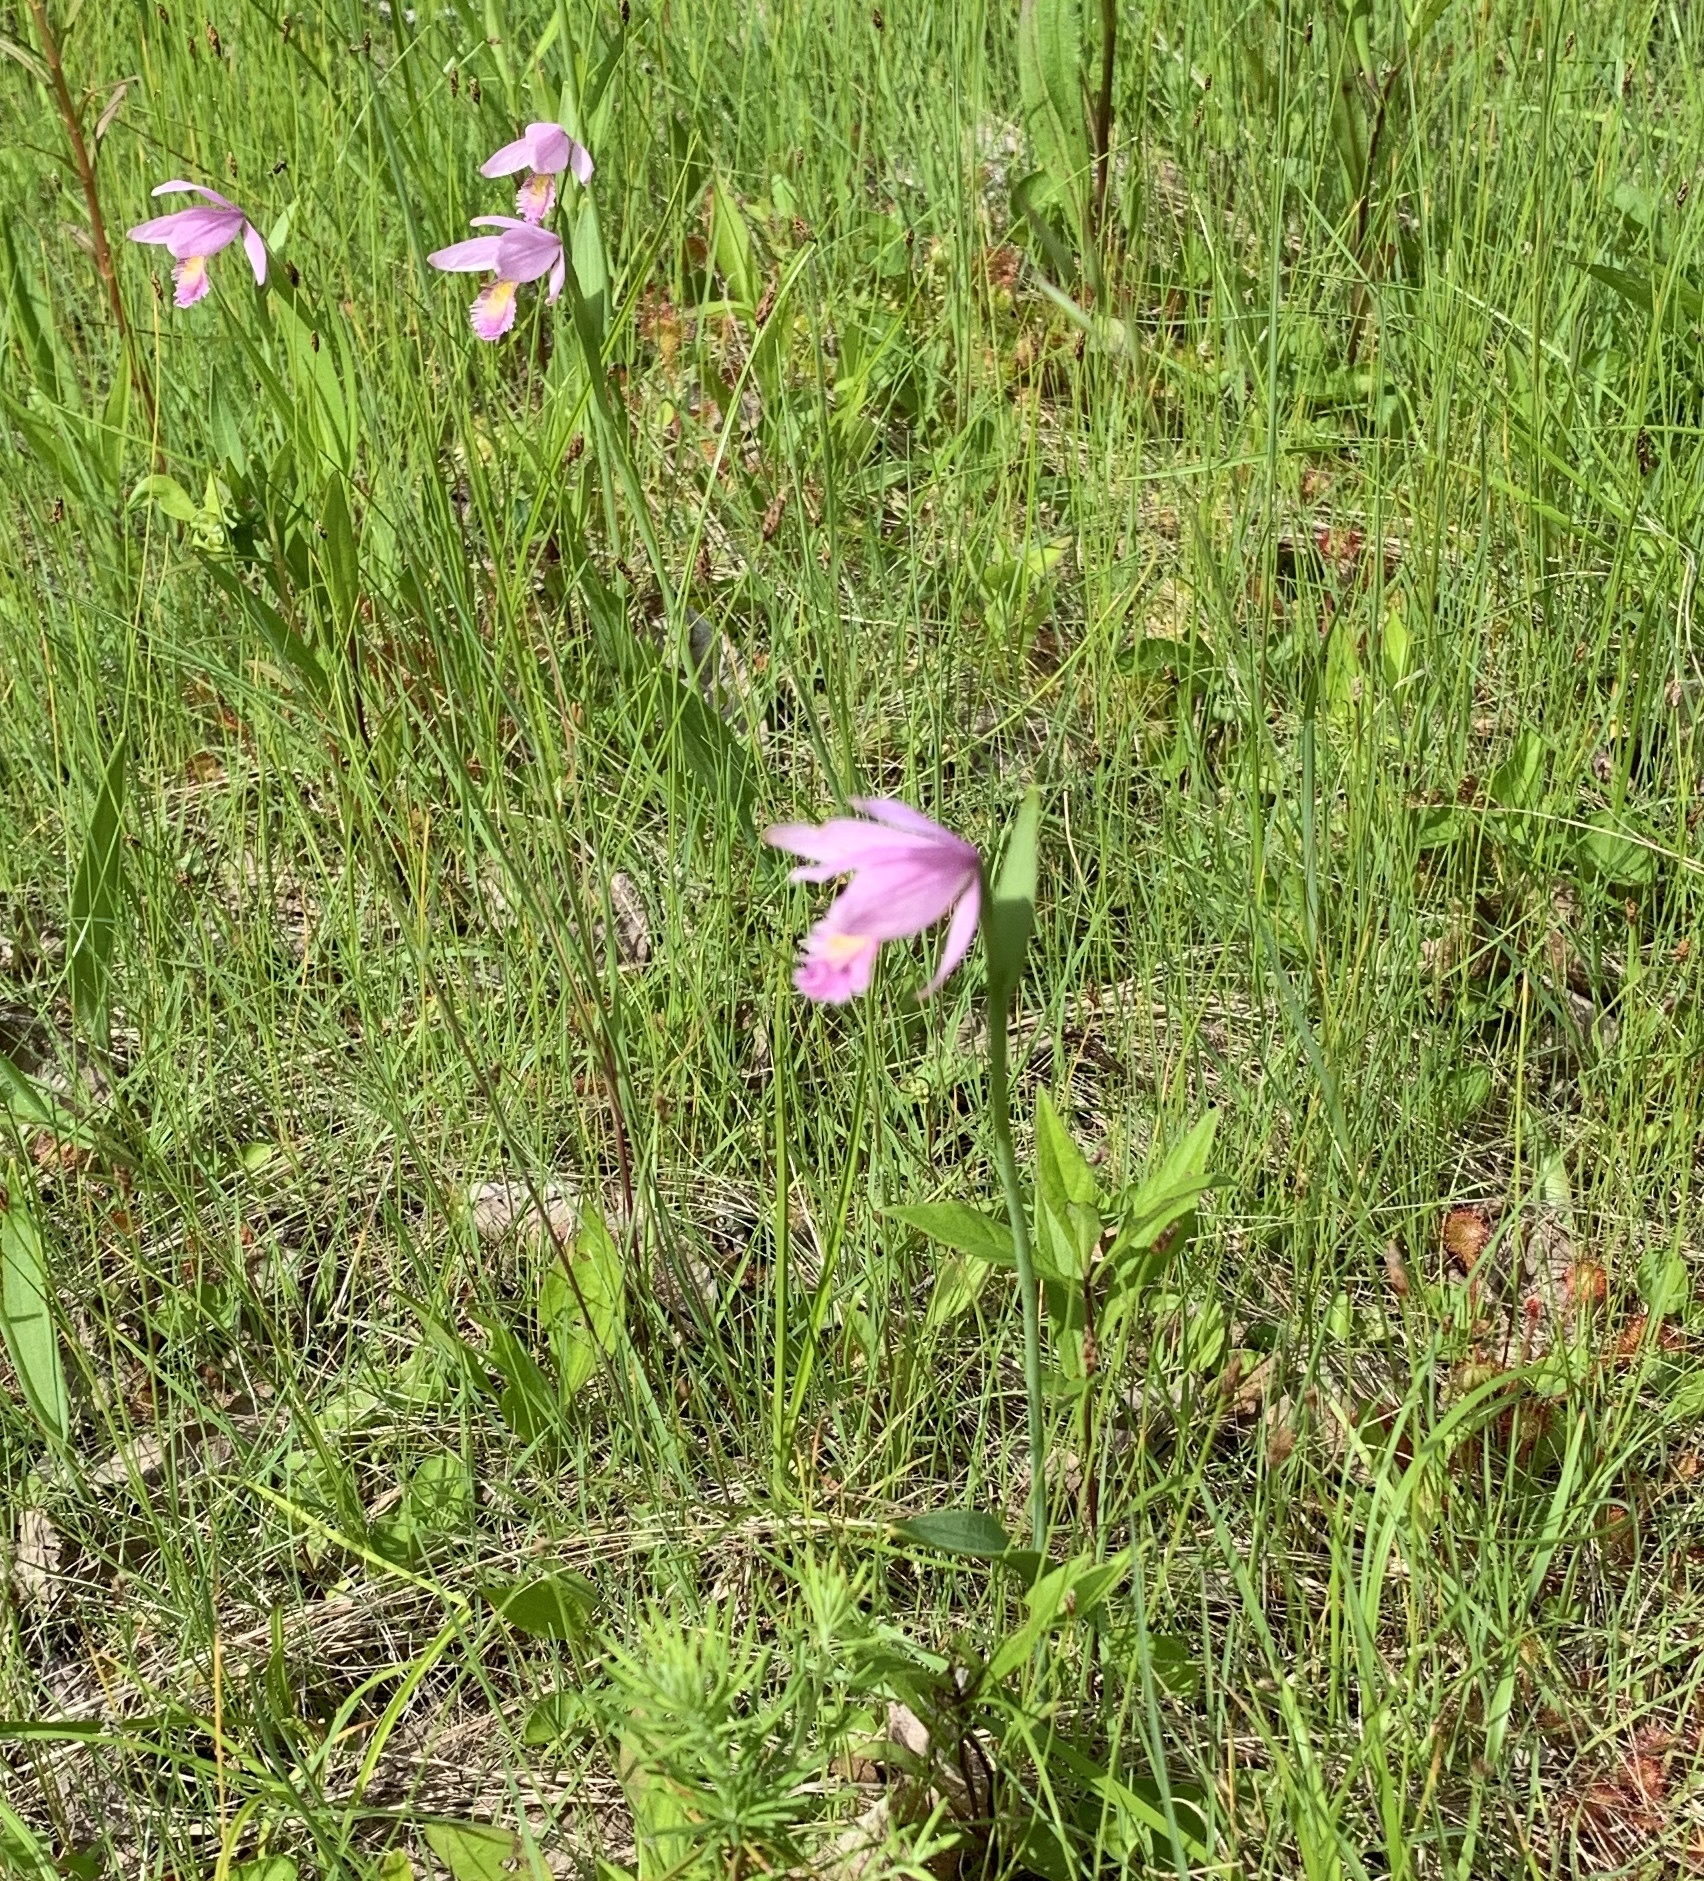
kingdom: Plantae
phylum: Tracheophyta
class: Liliopsida
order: Asparagales
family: Orchidaceae
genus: Pogonia
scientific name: Pogonia ophioglossoides
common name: Rose pogonia
